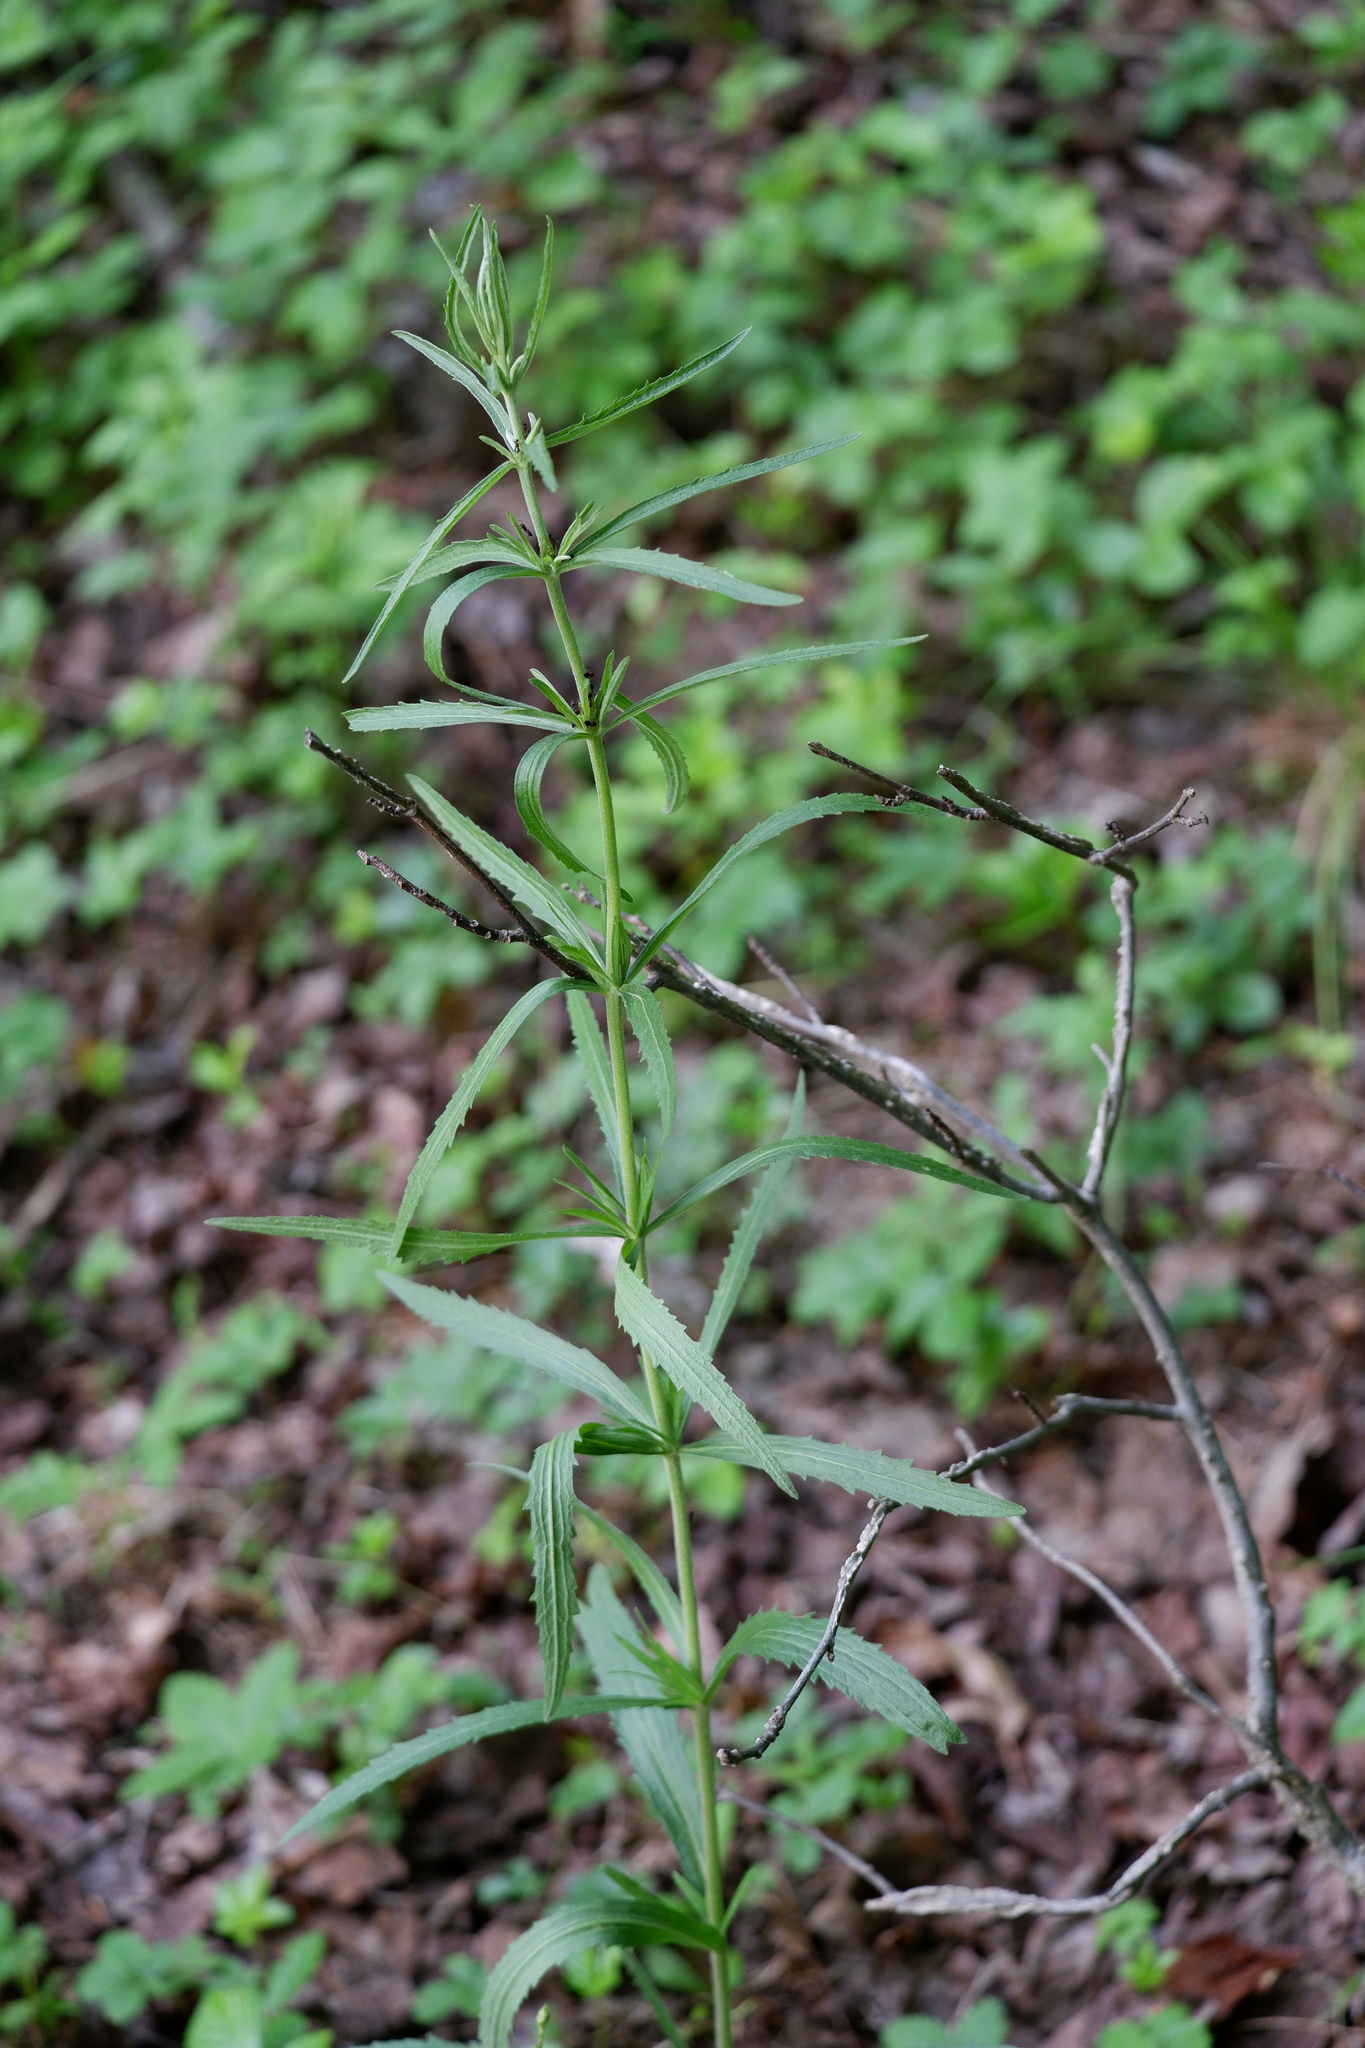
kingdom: Plantae
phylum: Tracheophyta
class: Magnoliopsida
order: Asterales
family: Asteraceae
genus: Eupatorium
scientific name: Eupatorium torreyanum
